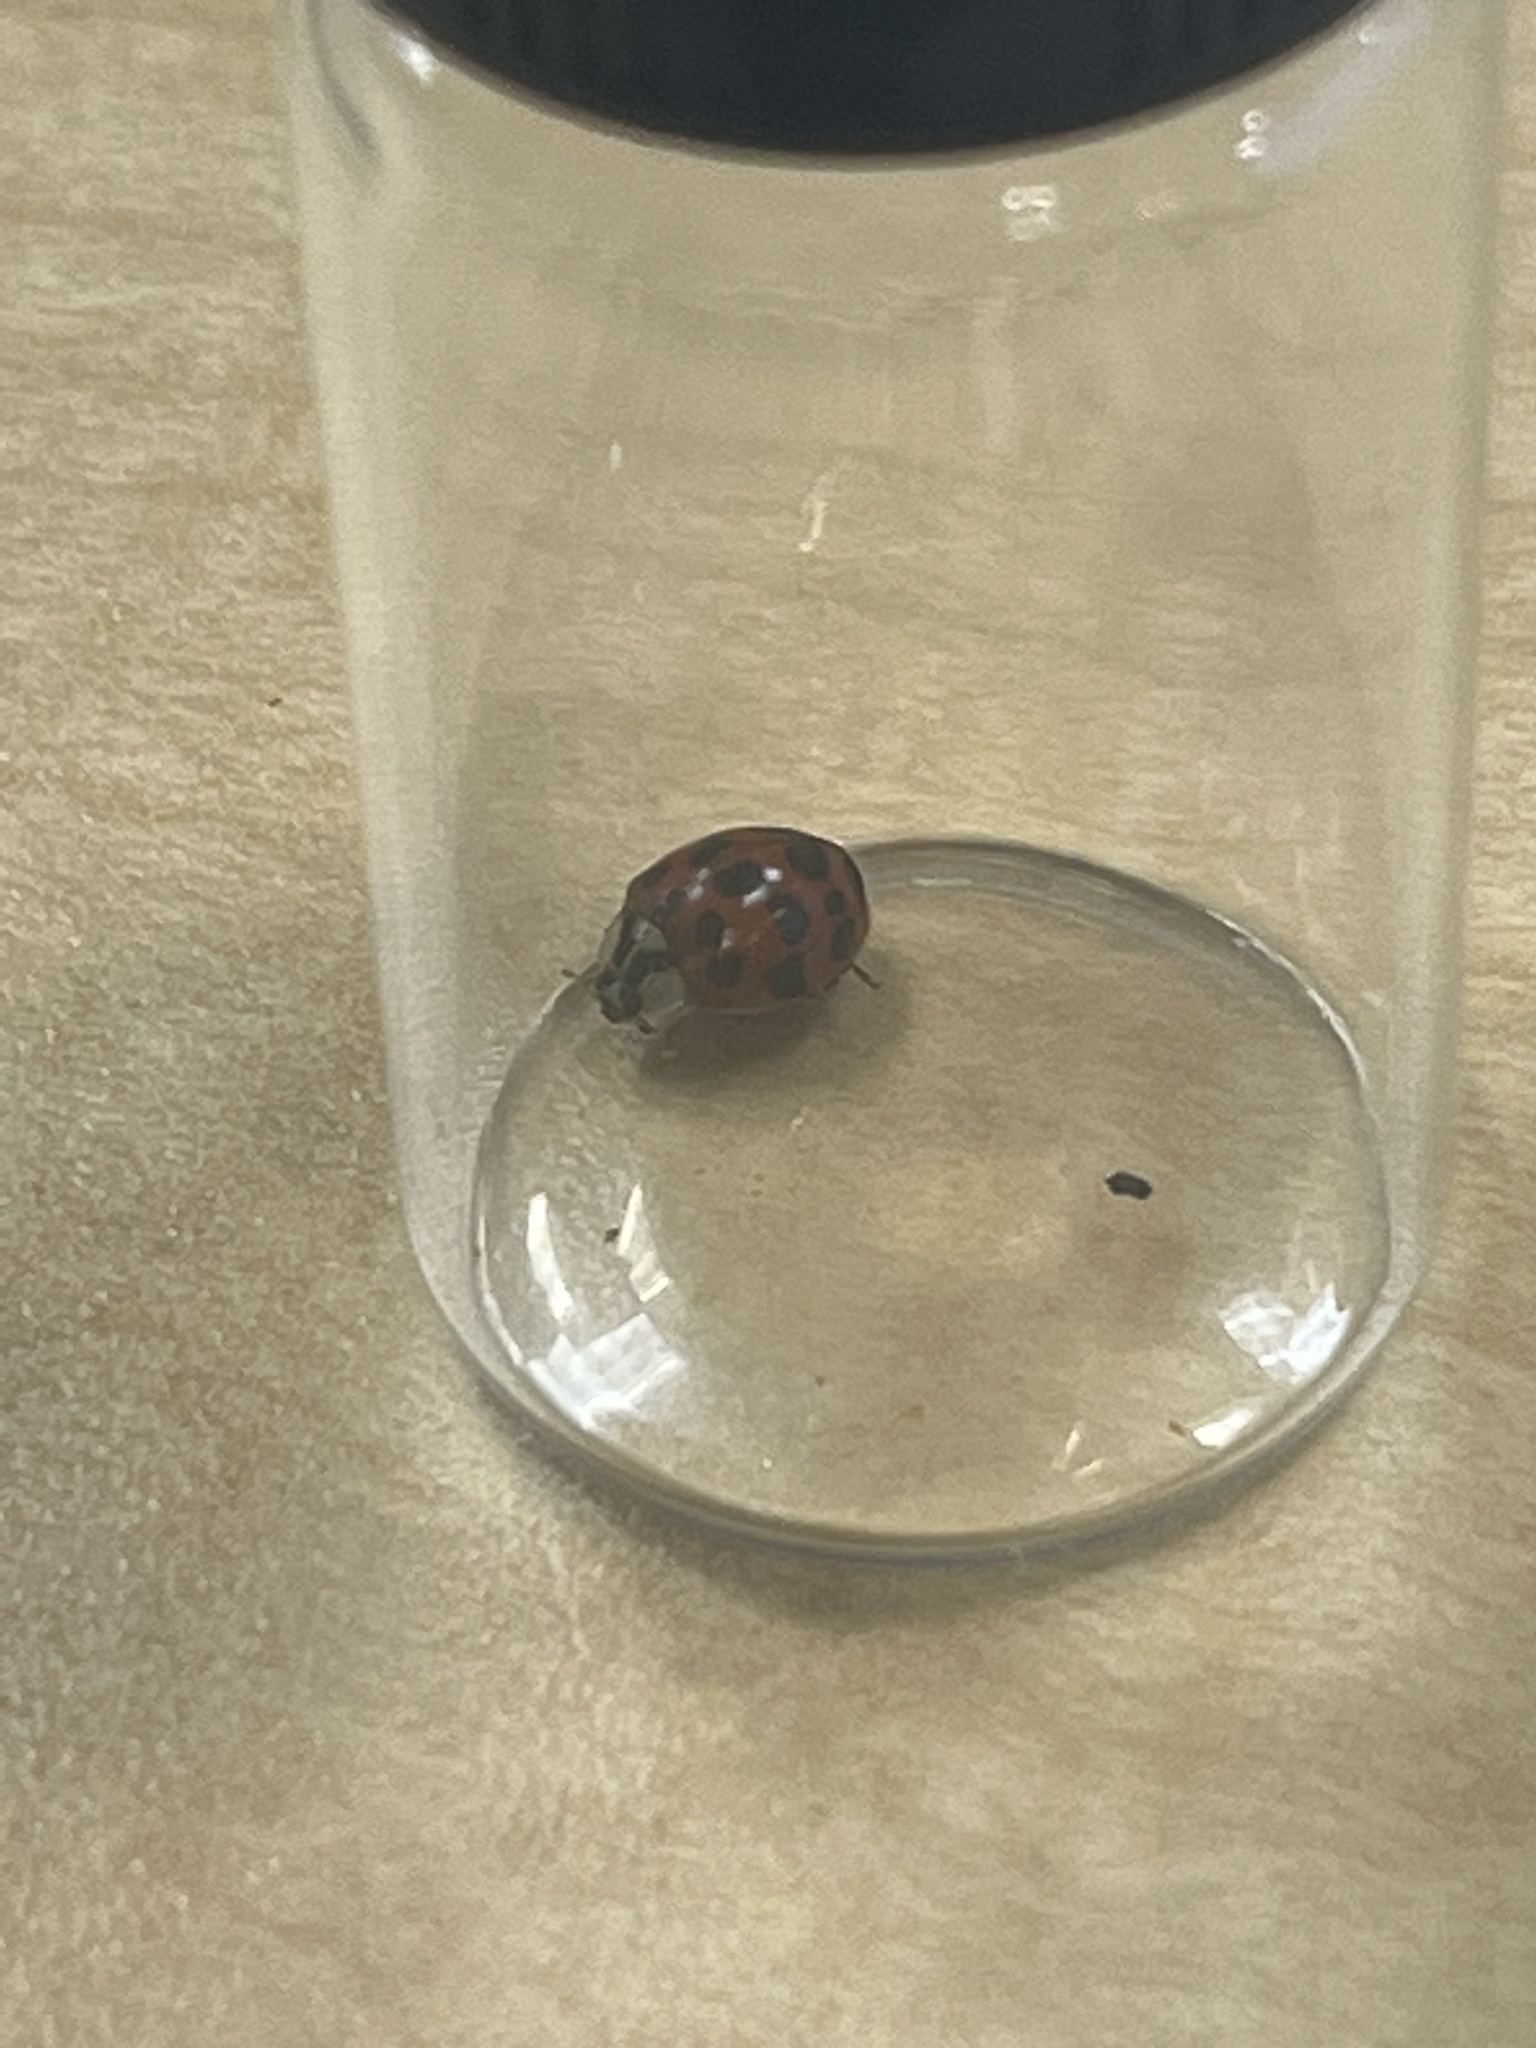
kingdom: Animalia
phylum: Arthropoda
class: Insecta
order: Coleoptera
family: Coccinellidae
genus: Harmonia
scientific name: Harmonia axyridis
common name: Harlequin ladybird
